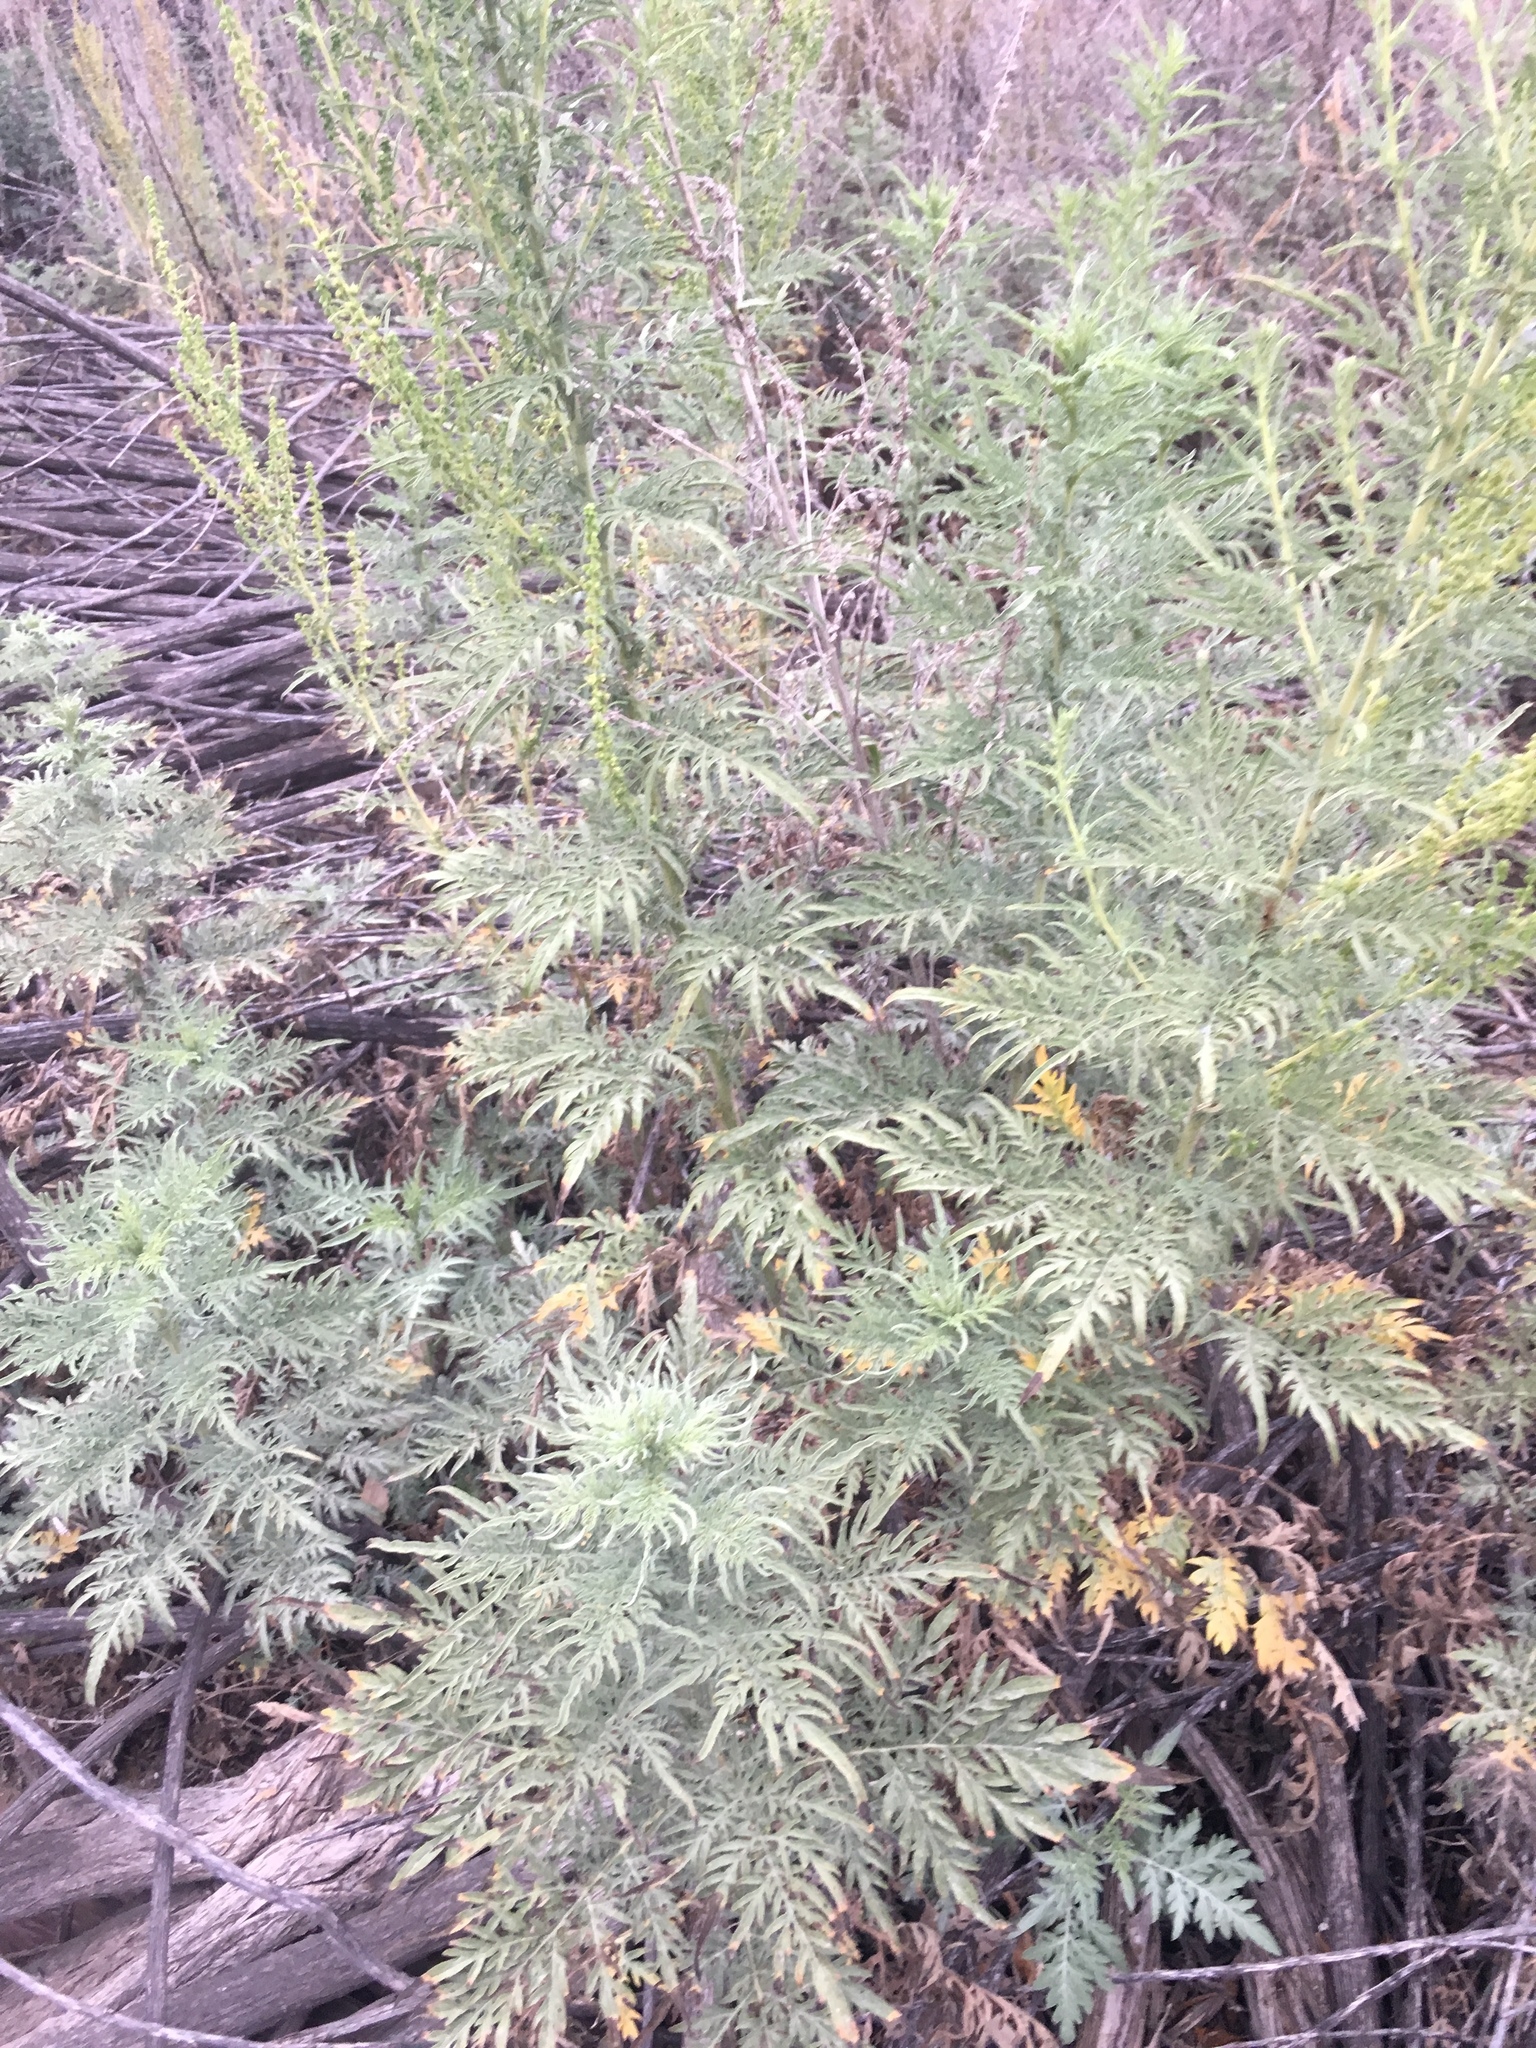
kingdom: Plantae
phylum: Tracheophyta
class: Magnoliopsida
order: Asterales
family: Asteraceae
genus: Ambrosia
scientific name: Ambrosia psilostachya
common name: Perennial ragweed
